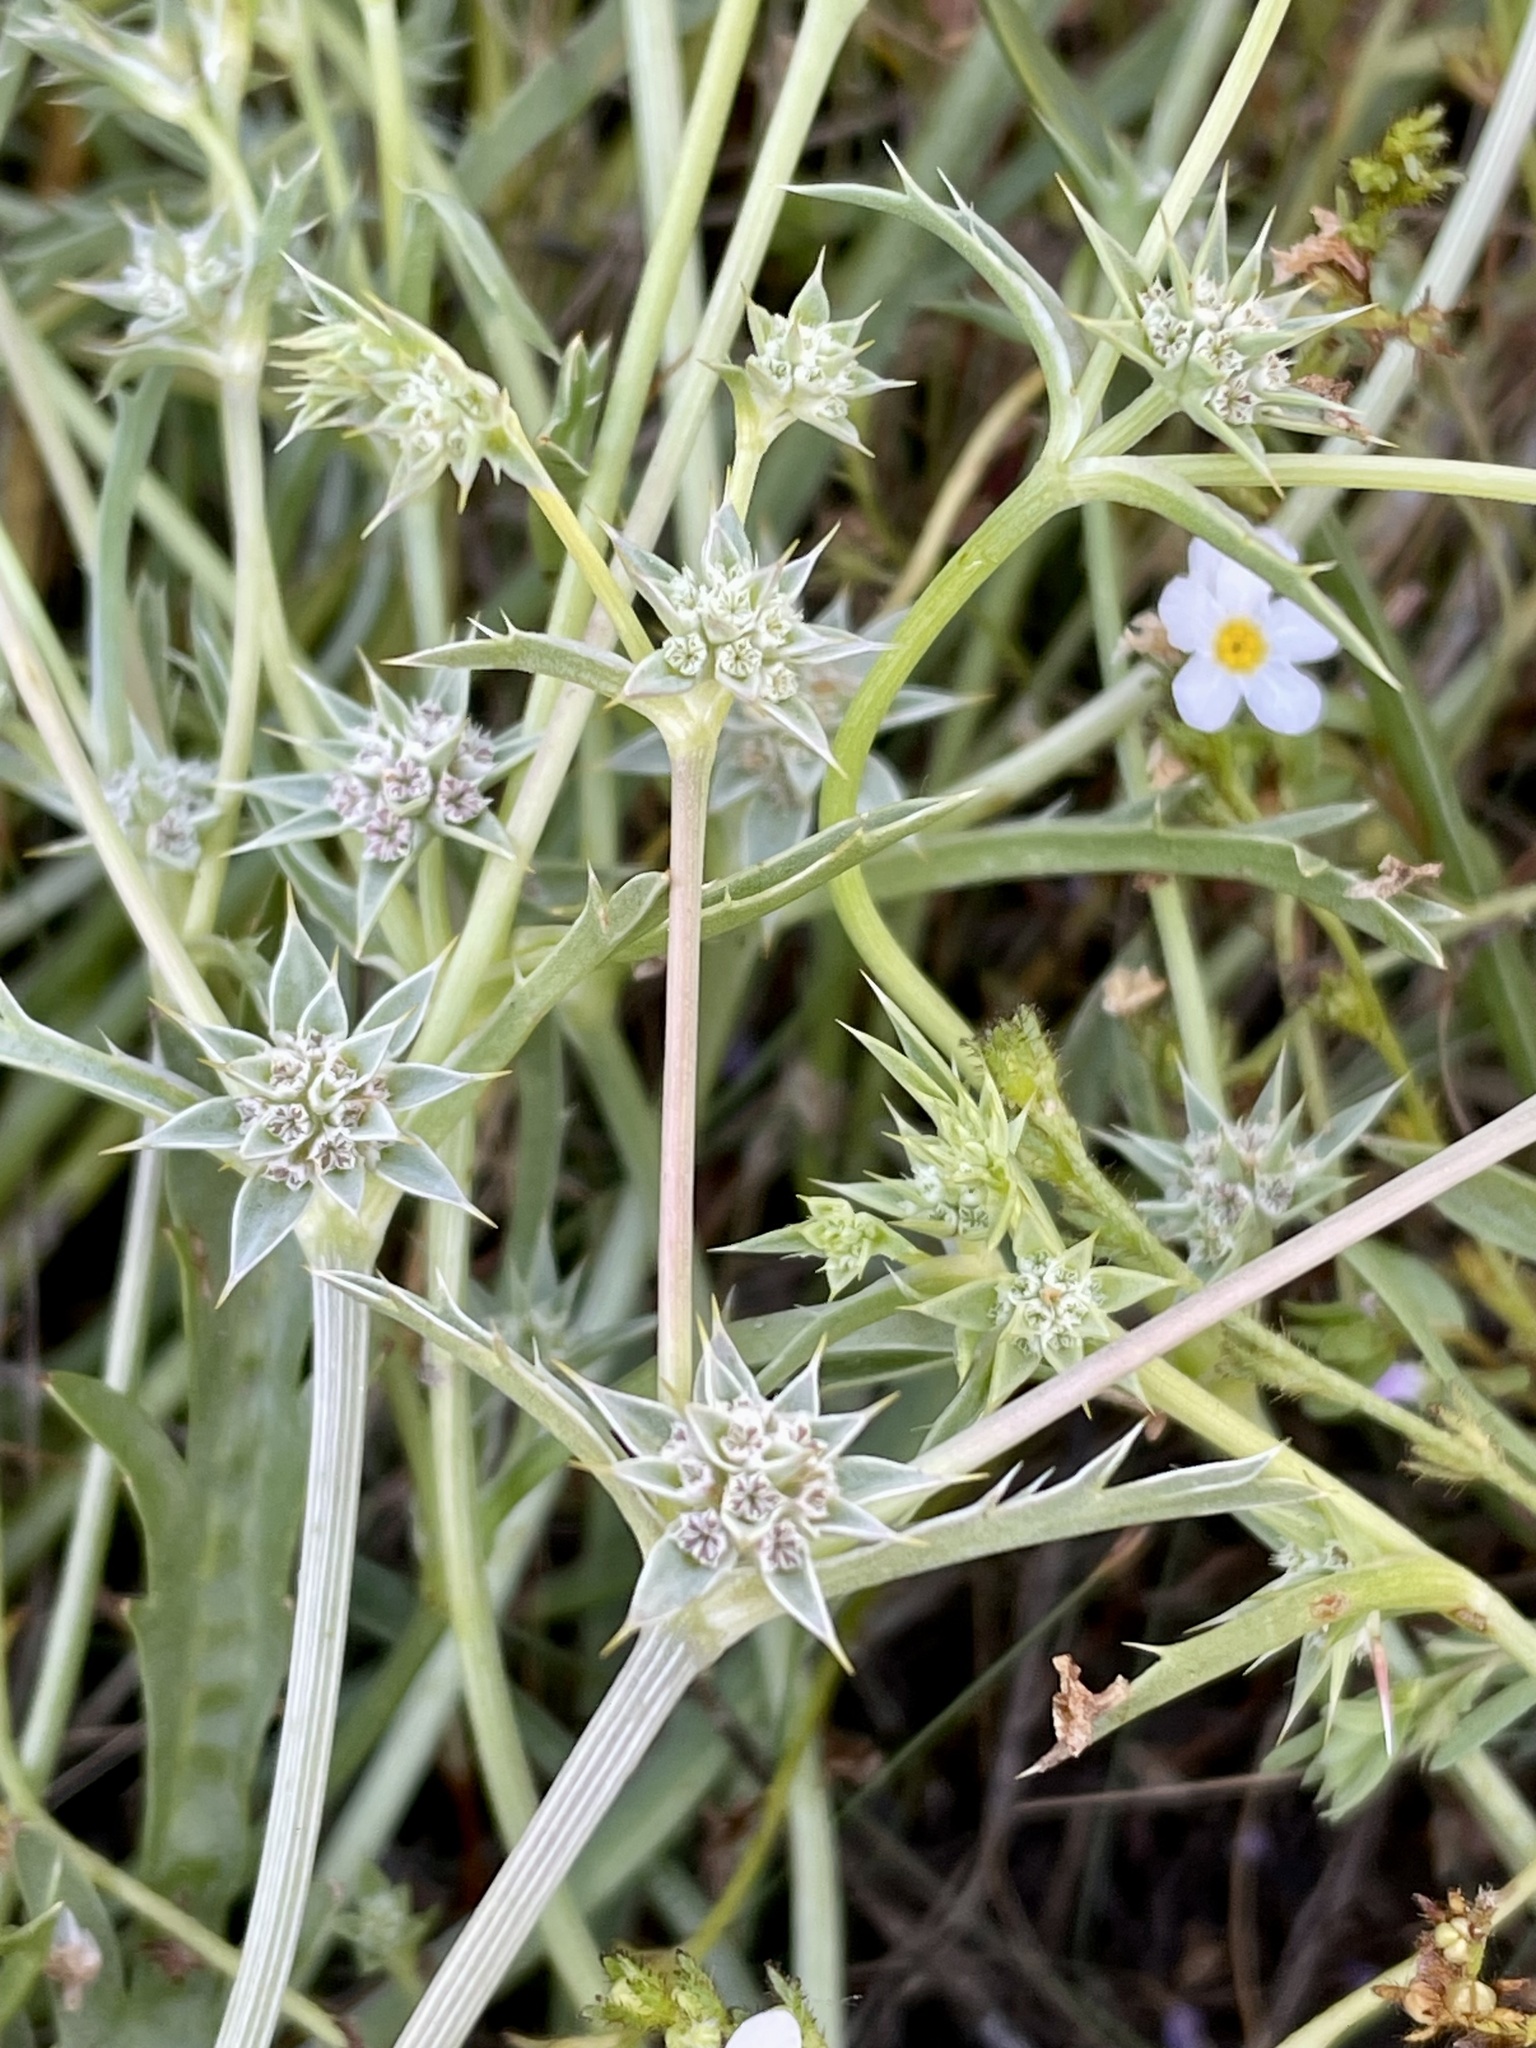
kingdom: Plantae
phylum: Tracheophyta
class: Magnoliopsida
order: Apiales
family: Apiaceae
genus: Eryngium
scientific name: Eryngium montereyense
